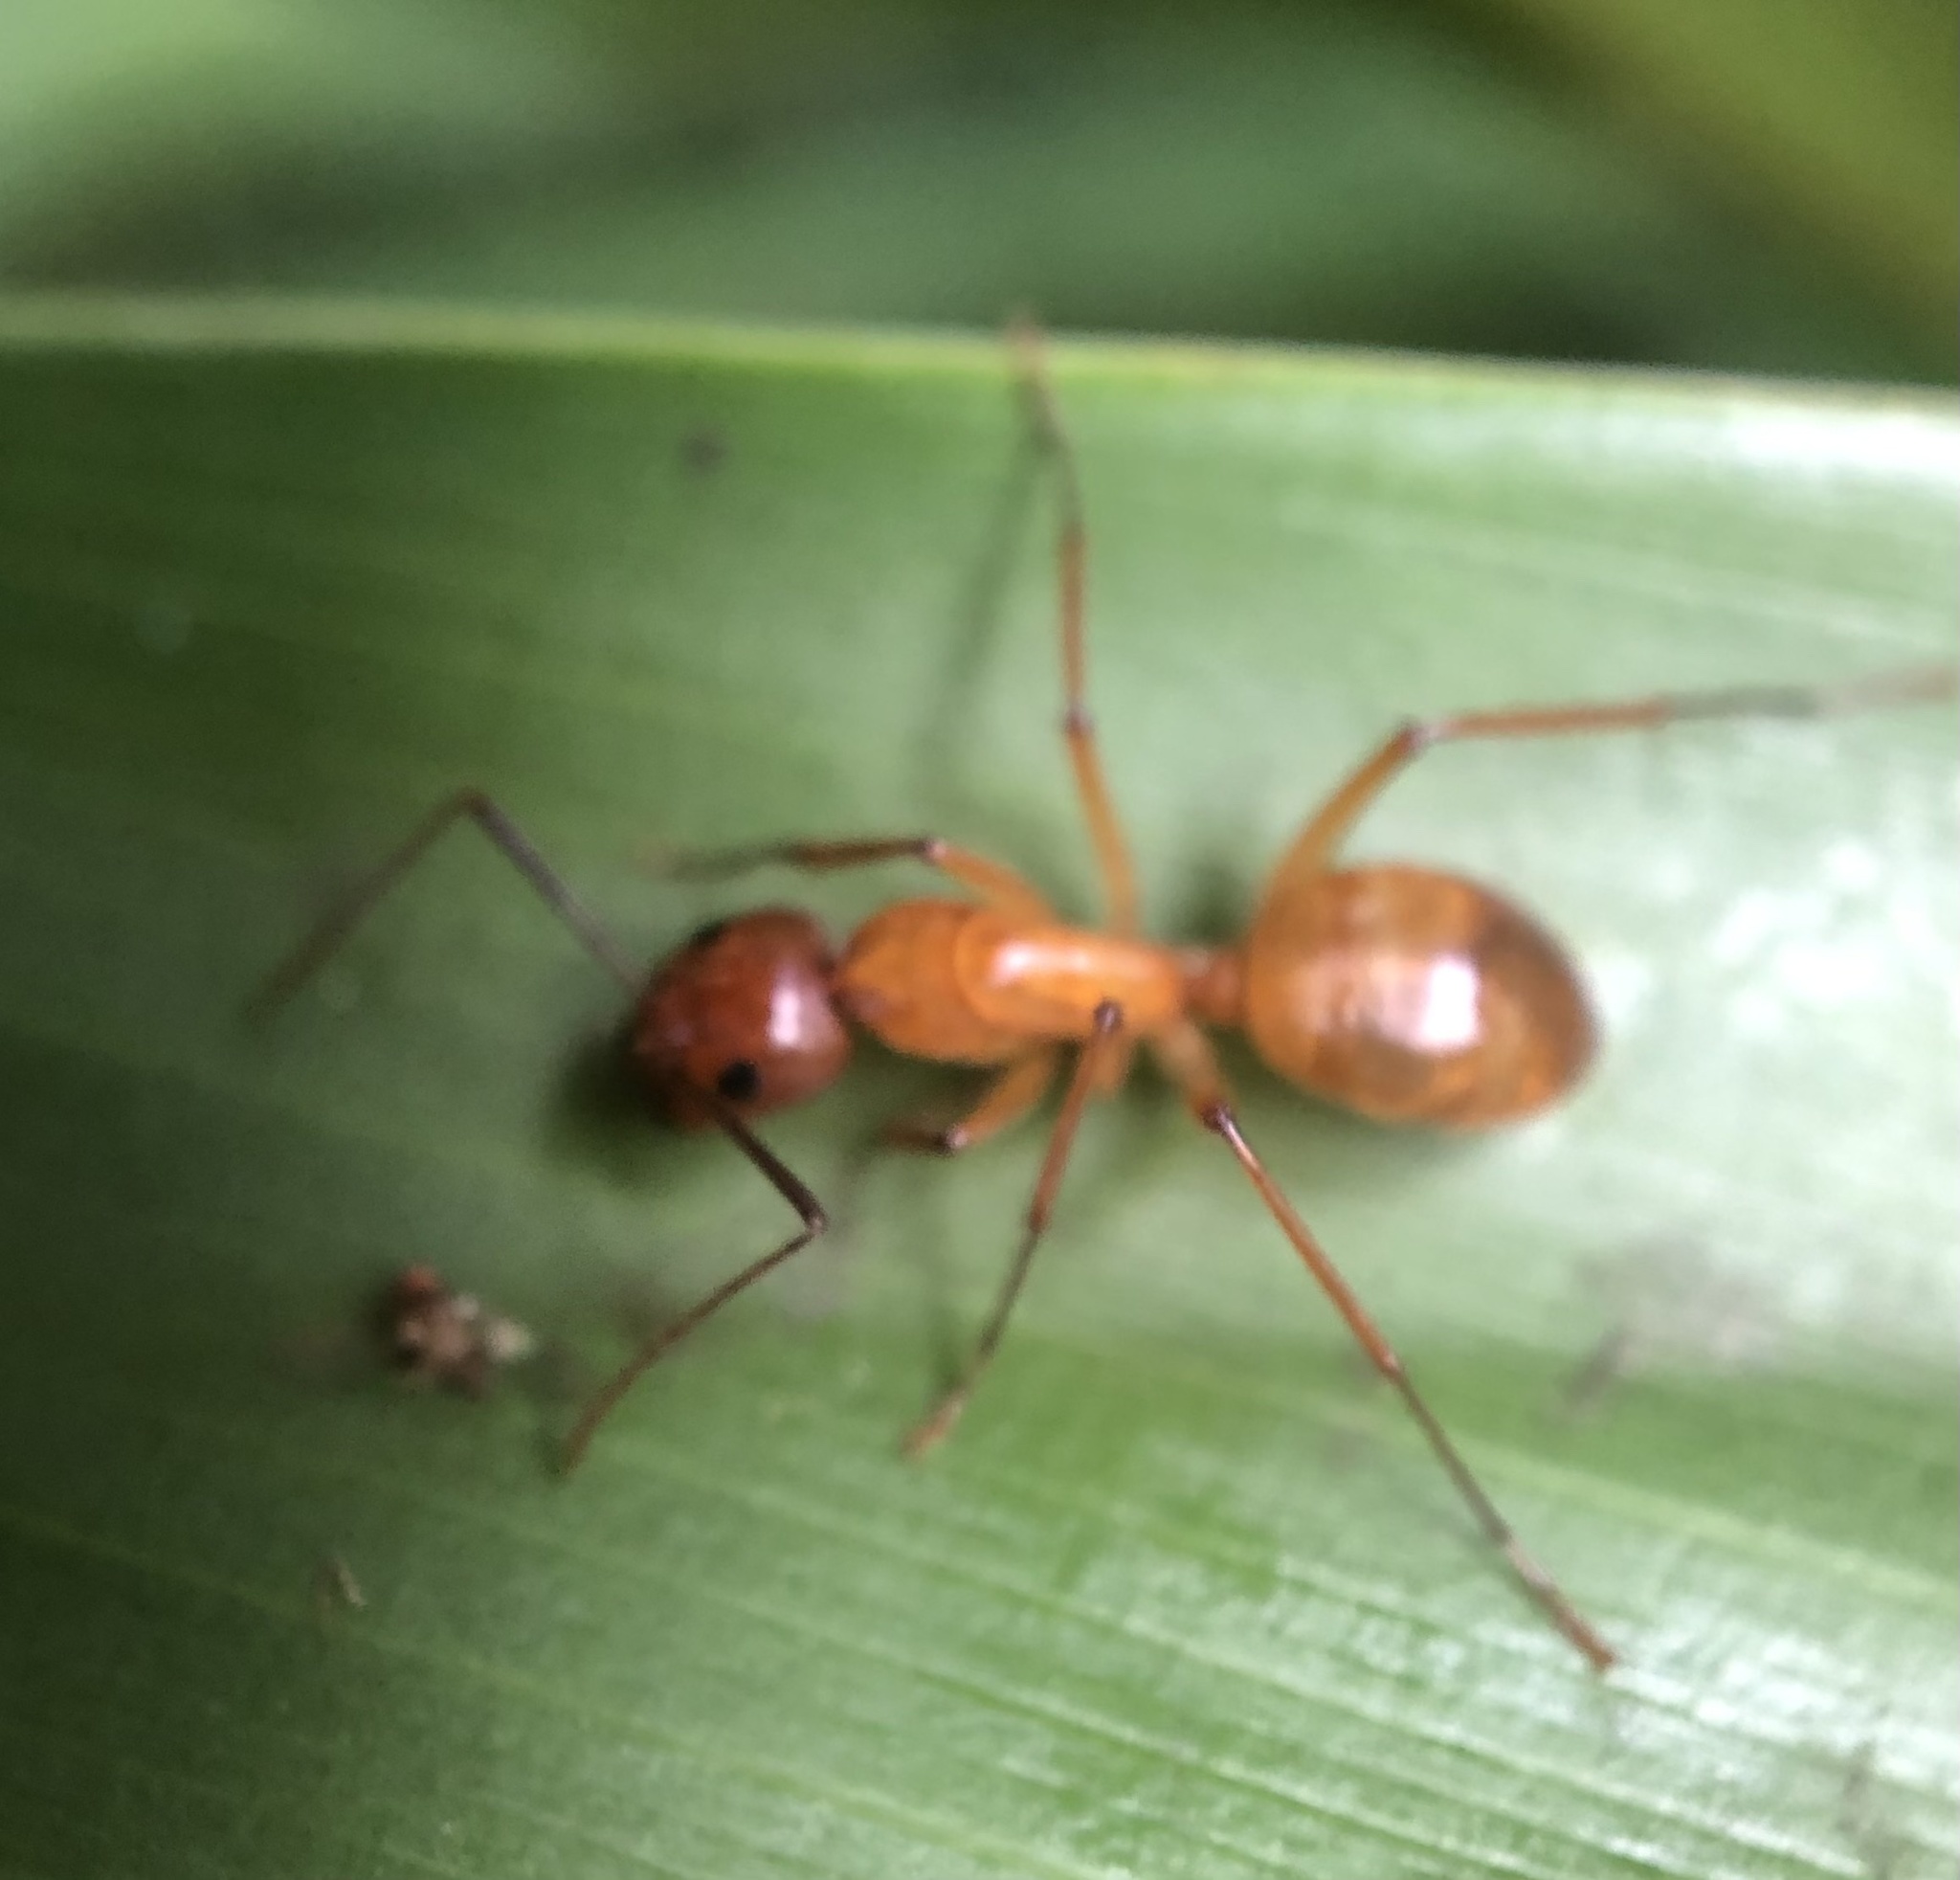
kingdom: Animalia
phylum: Arthropoda
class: Insecta
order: Hymenoptera
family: Formicidae
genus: Camponotus
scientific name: Camponotus castaneus
